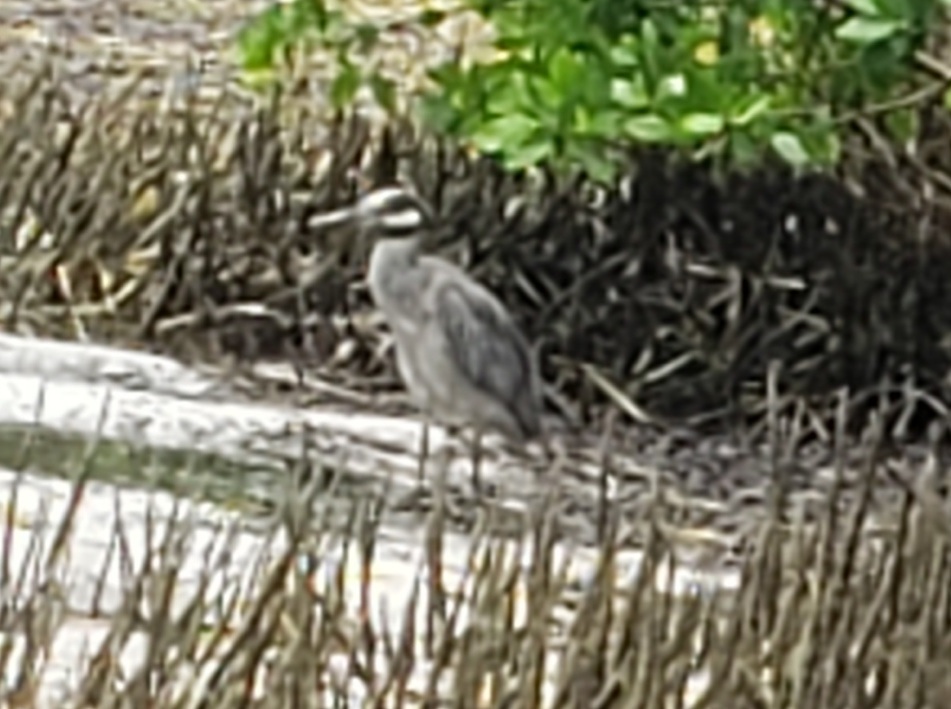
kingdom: Animalia
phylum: Chordata
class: Aves
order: Pelecaniformes
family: Ardeidae
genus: Nyctanassa
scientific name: Nyctanassa violacea
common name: Yellow-crowned night heron
